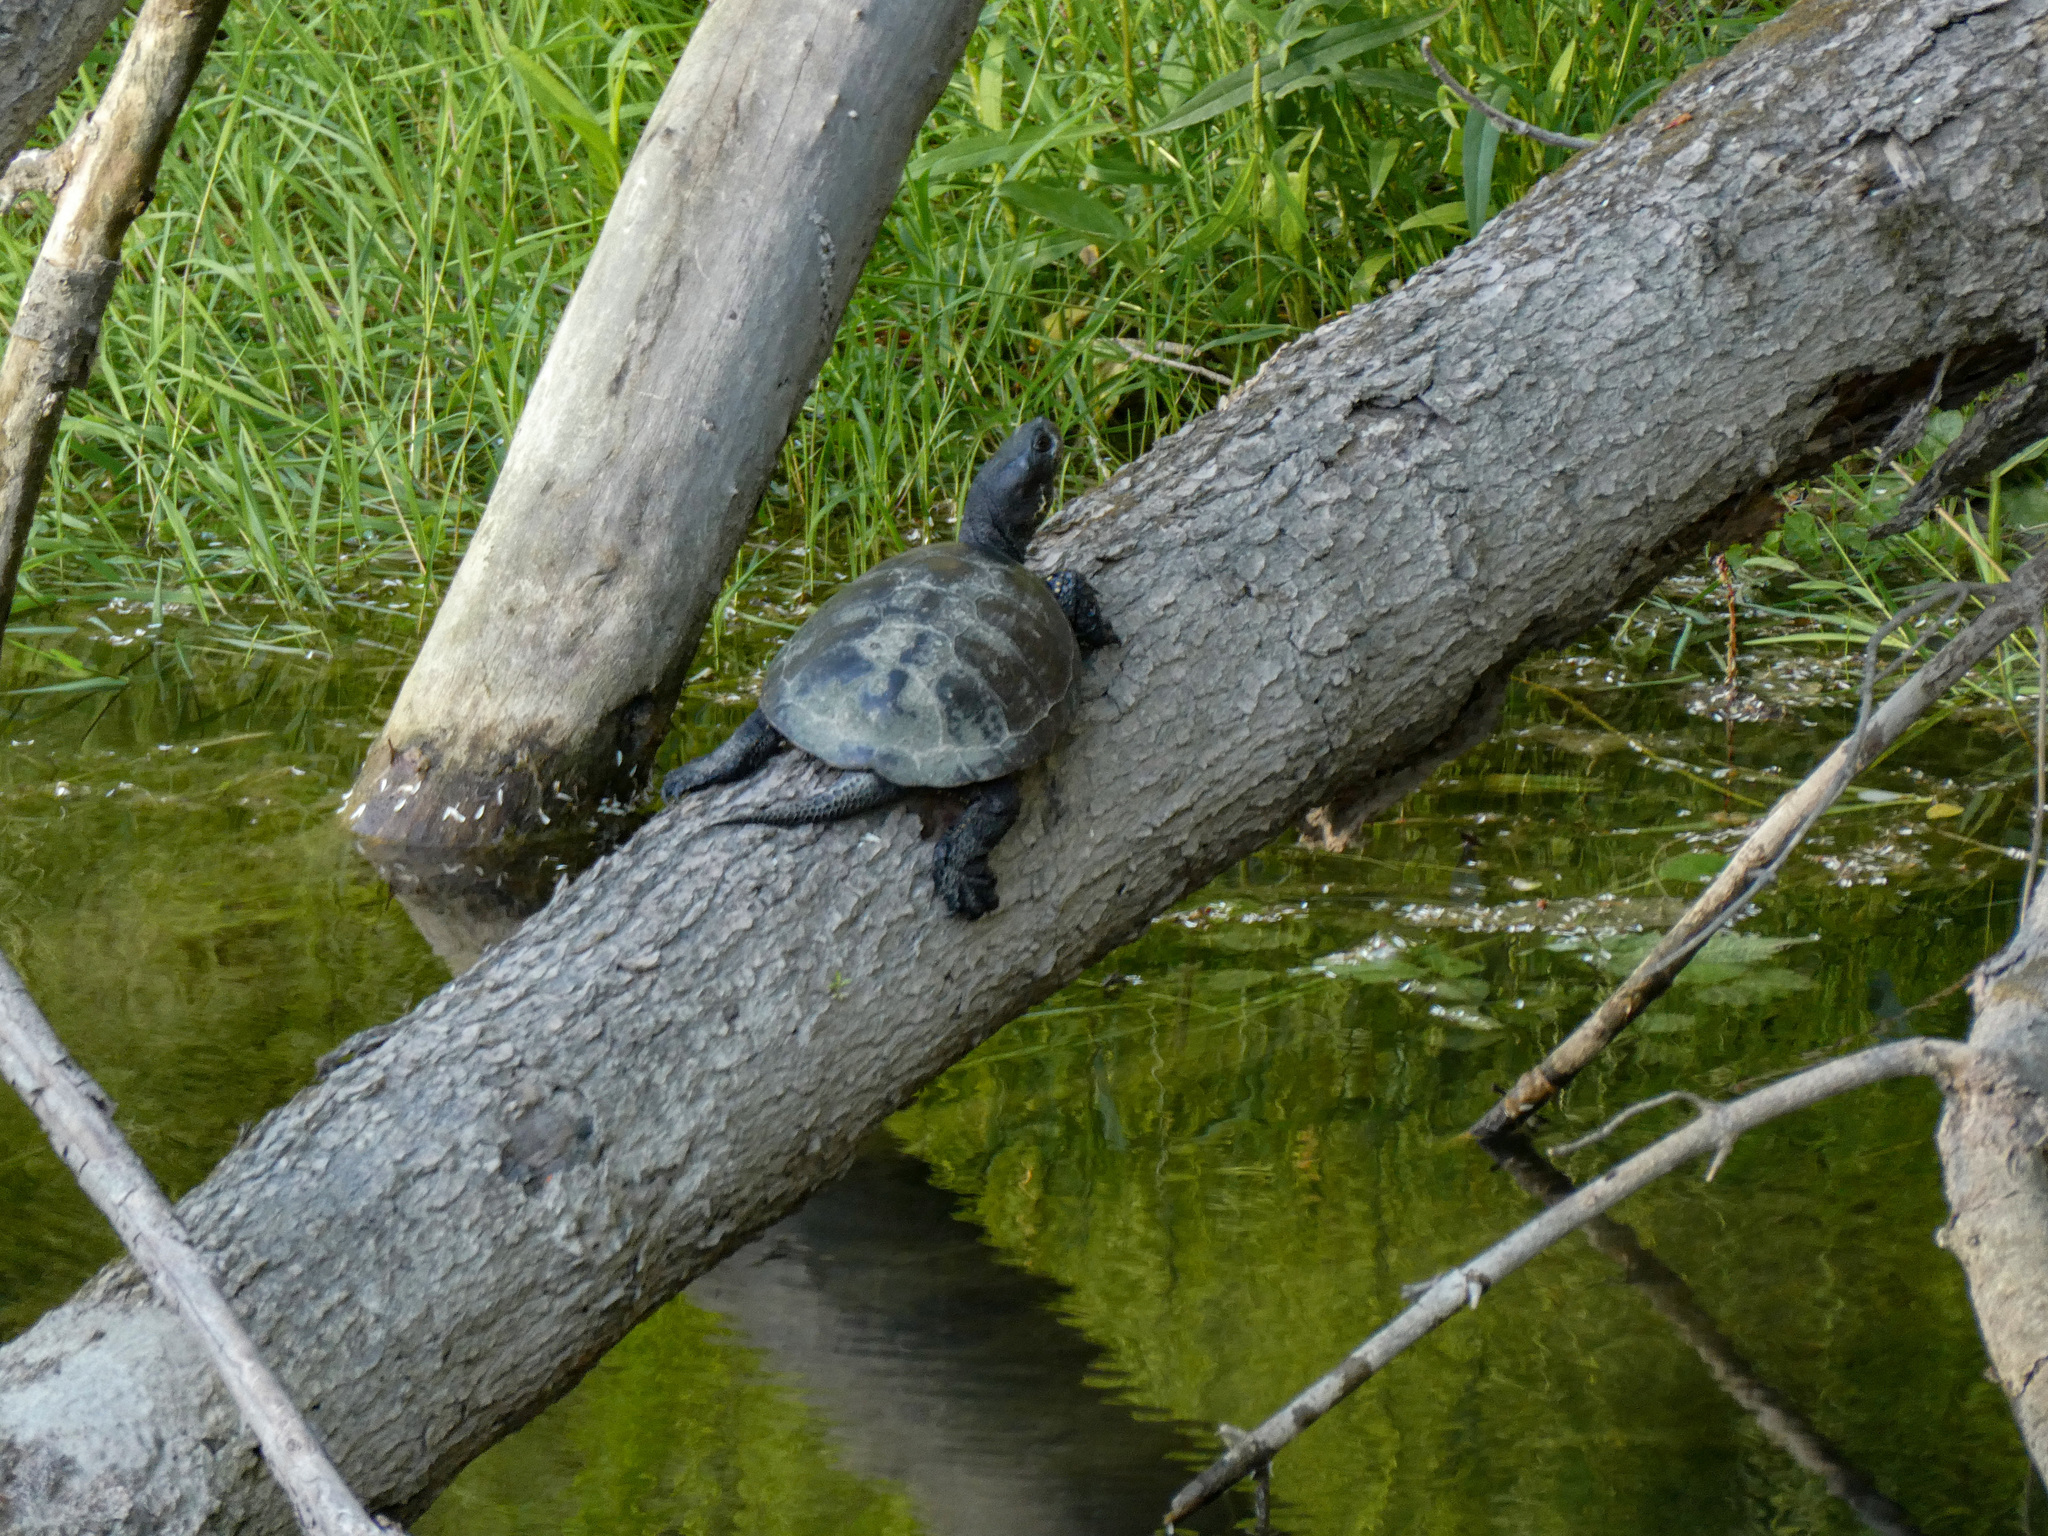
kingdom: Animalia
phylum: Chordata
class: Testudines
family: Emydidae
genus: Emys
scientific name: Emys orbicularis
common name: European pond turtle
